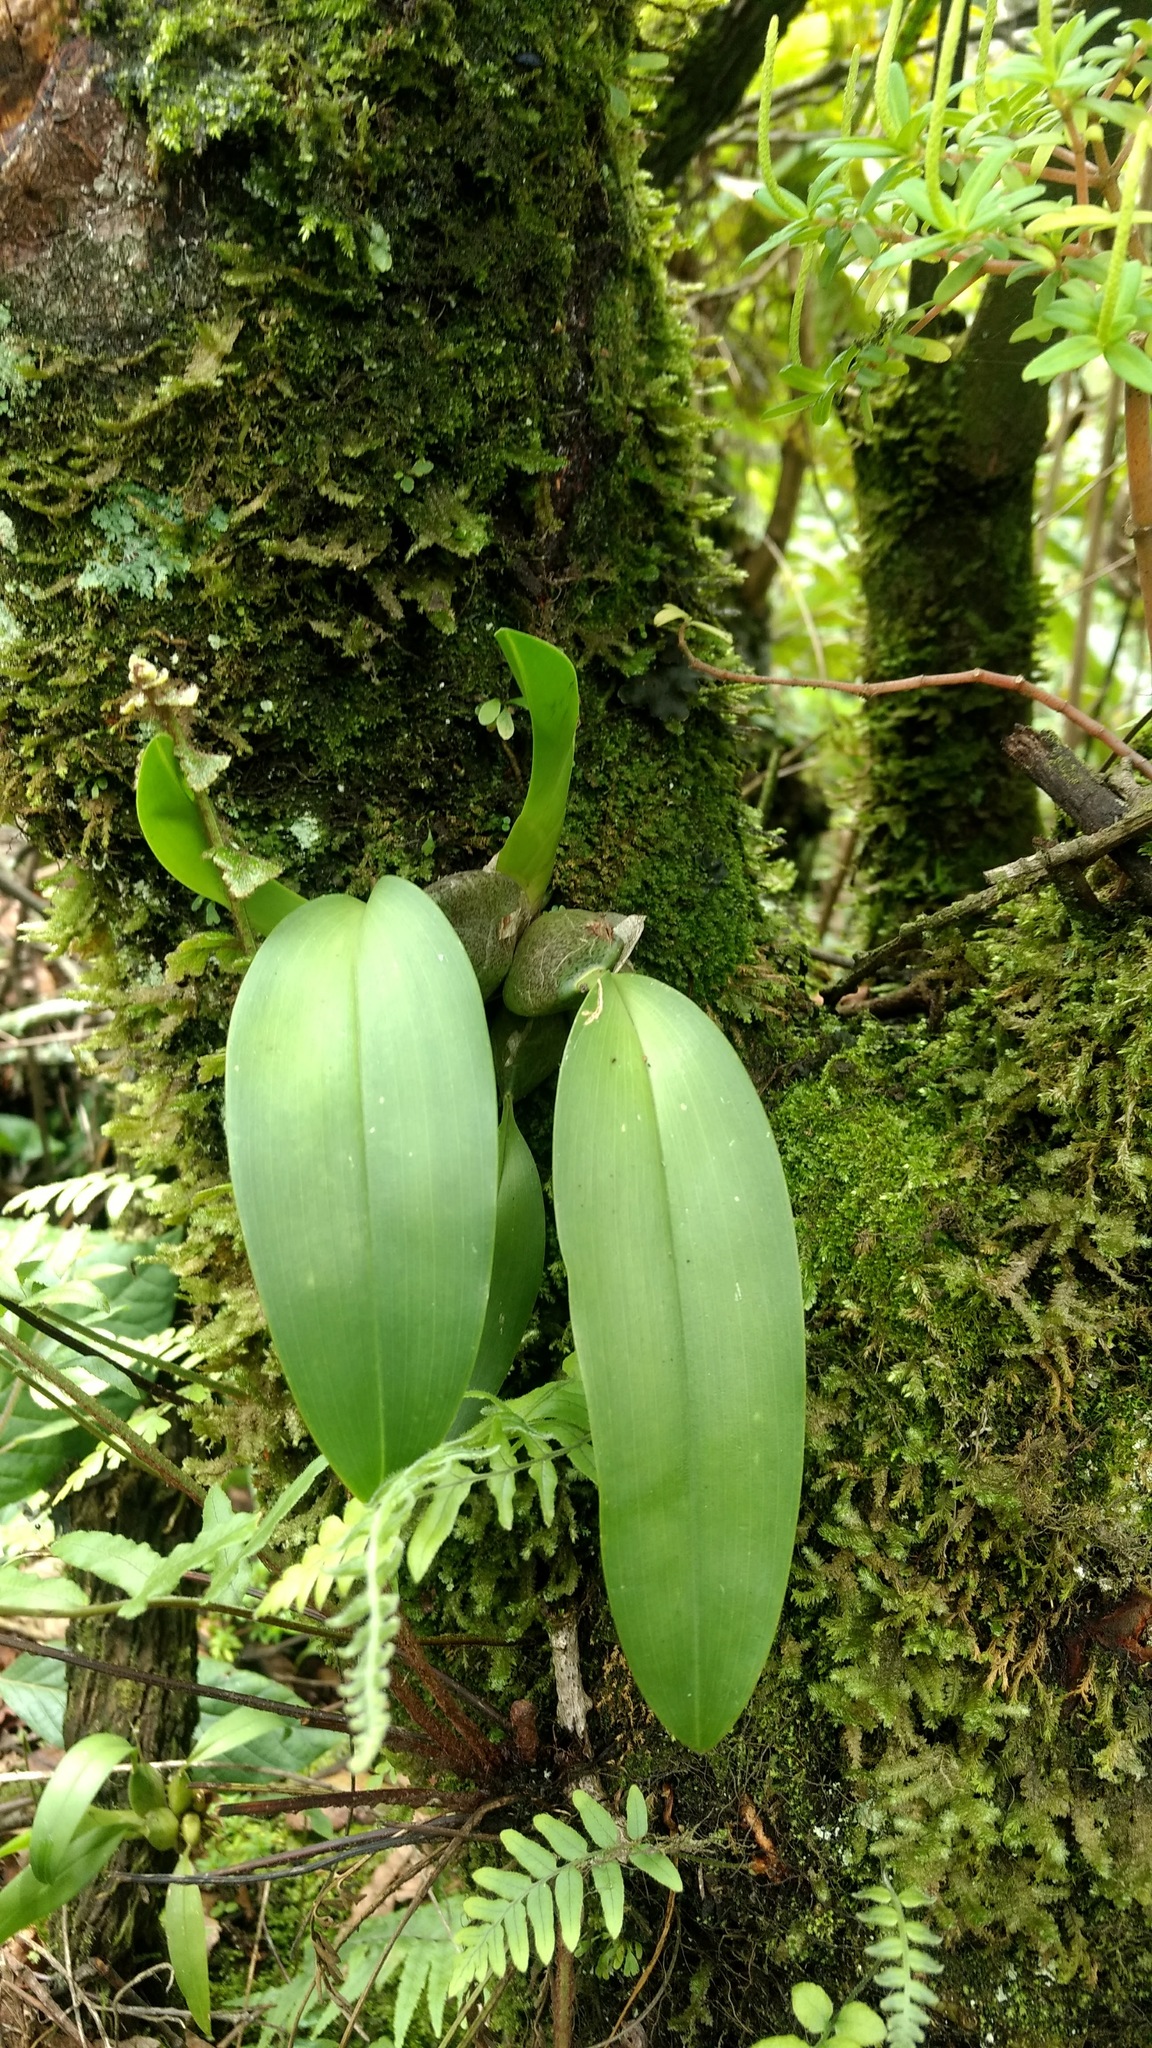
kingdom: Plantae
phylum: Tracheophyta
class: Liliopsida
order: Asparagales
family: Orchidaceae
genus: Rhynchostele
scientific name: Rhynchostele cervantesii
